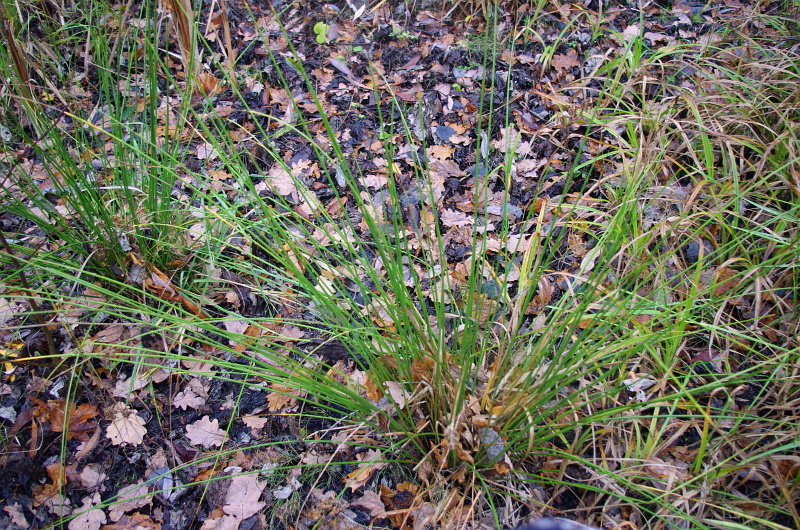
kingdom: Plantae
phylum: Tracheophyta
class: Liliopsida
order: Poales
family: Juncaceae
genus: Juncus
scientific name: Juncus effusus
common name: Soft rush
